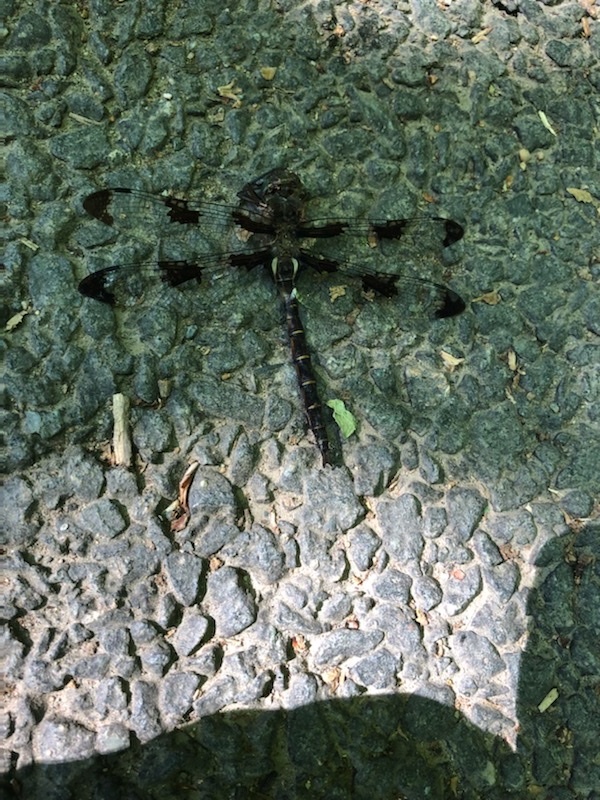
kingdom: Animalia
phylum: Arthropoda
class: Insecta
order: Odonata
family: Corduliidae
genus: Epitheca
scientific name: Epitheca princeps
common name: Prince baskettail
